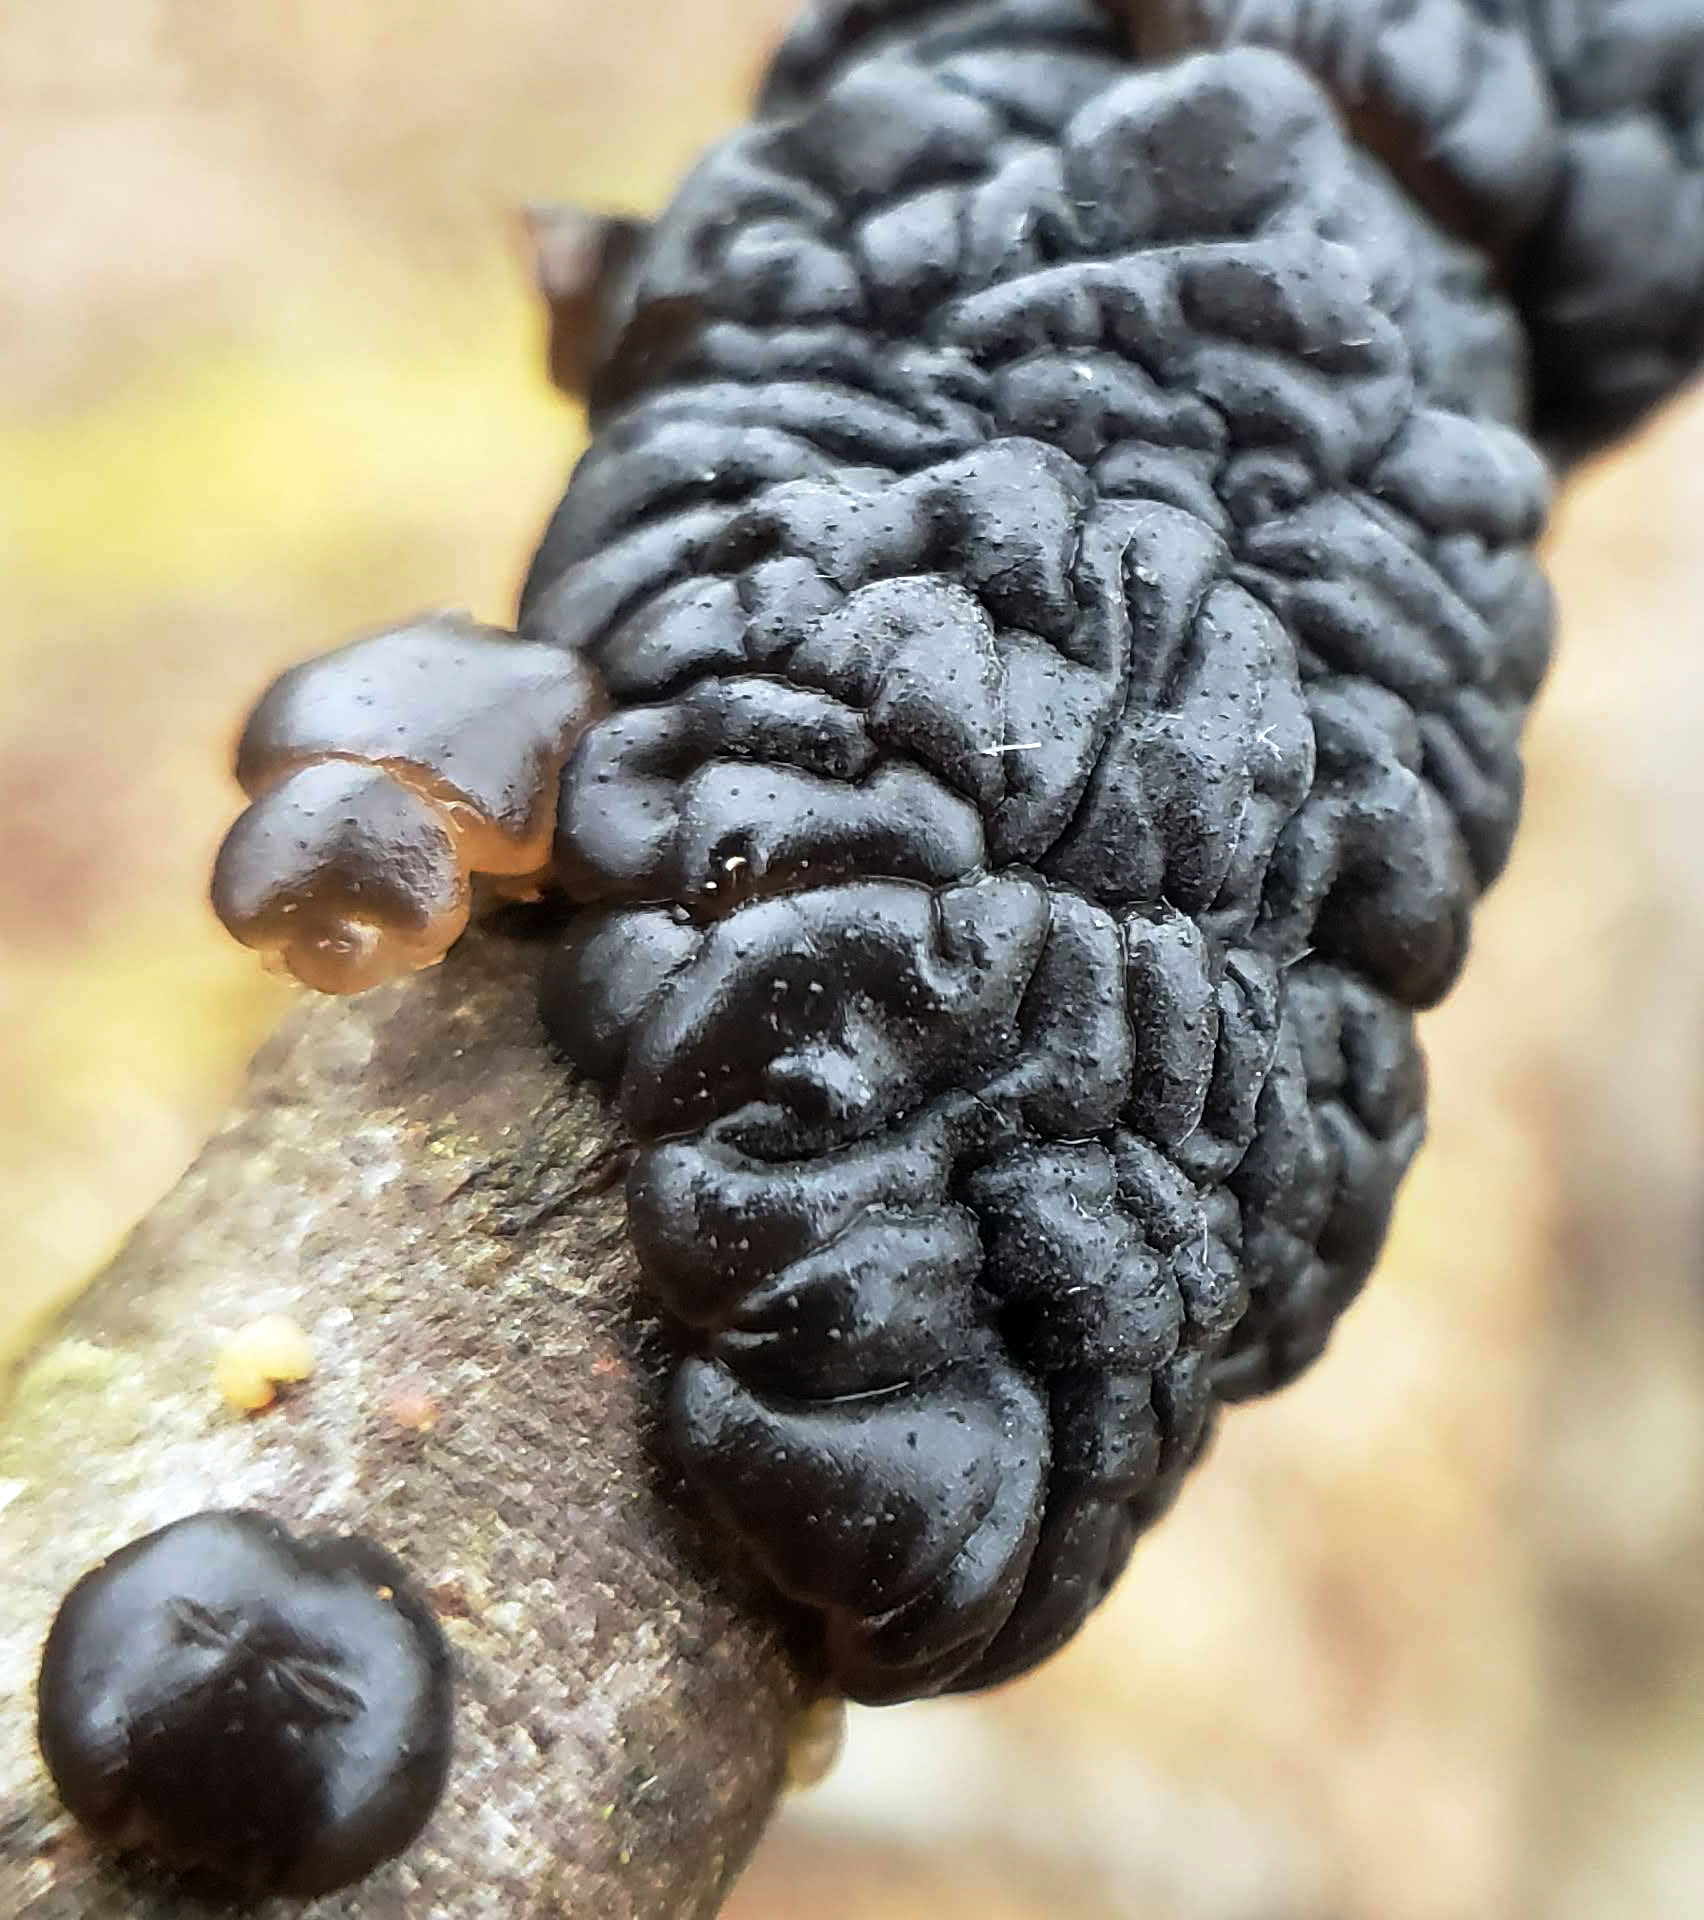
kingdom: Fungi
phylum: Basidiomycota
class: Agaricomycetes
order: Auriculariales
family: Auriculariaceae
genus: Exidia
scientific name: Exidia glandulosa
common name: Witches' butter
